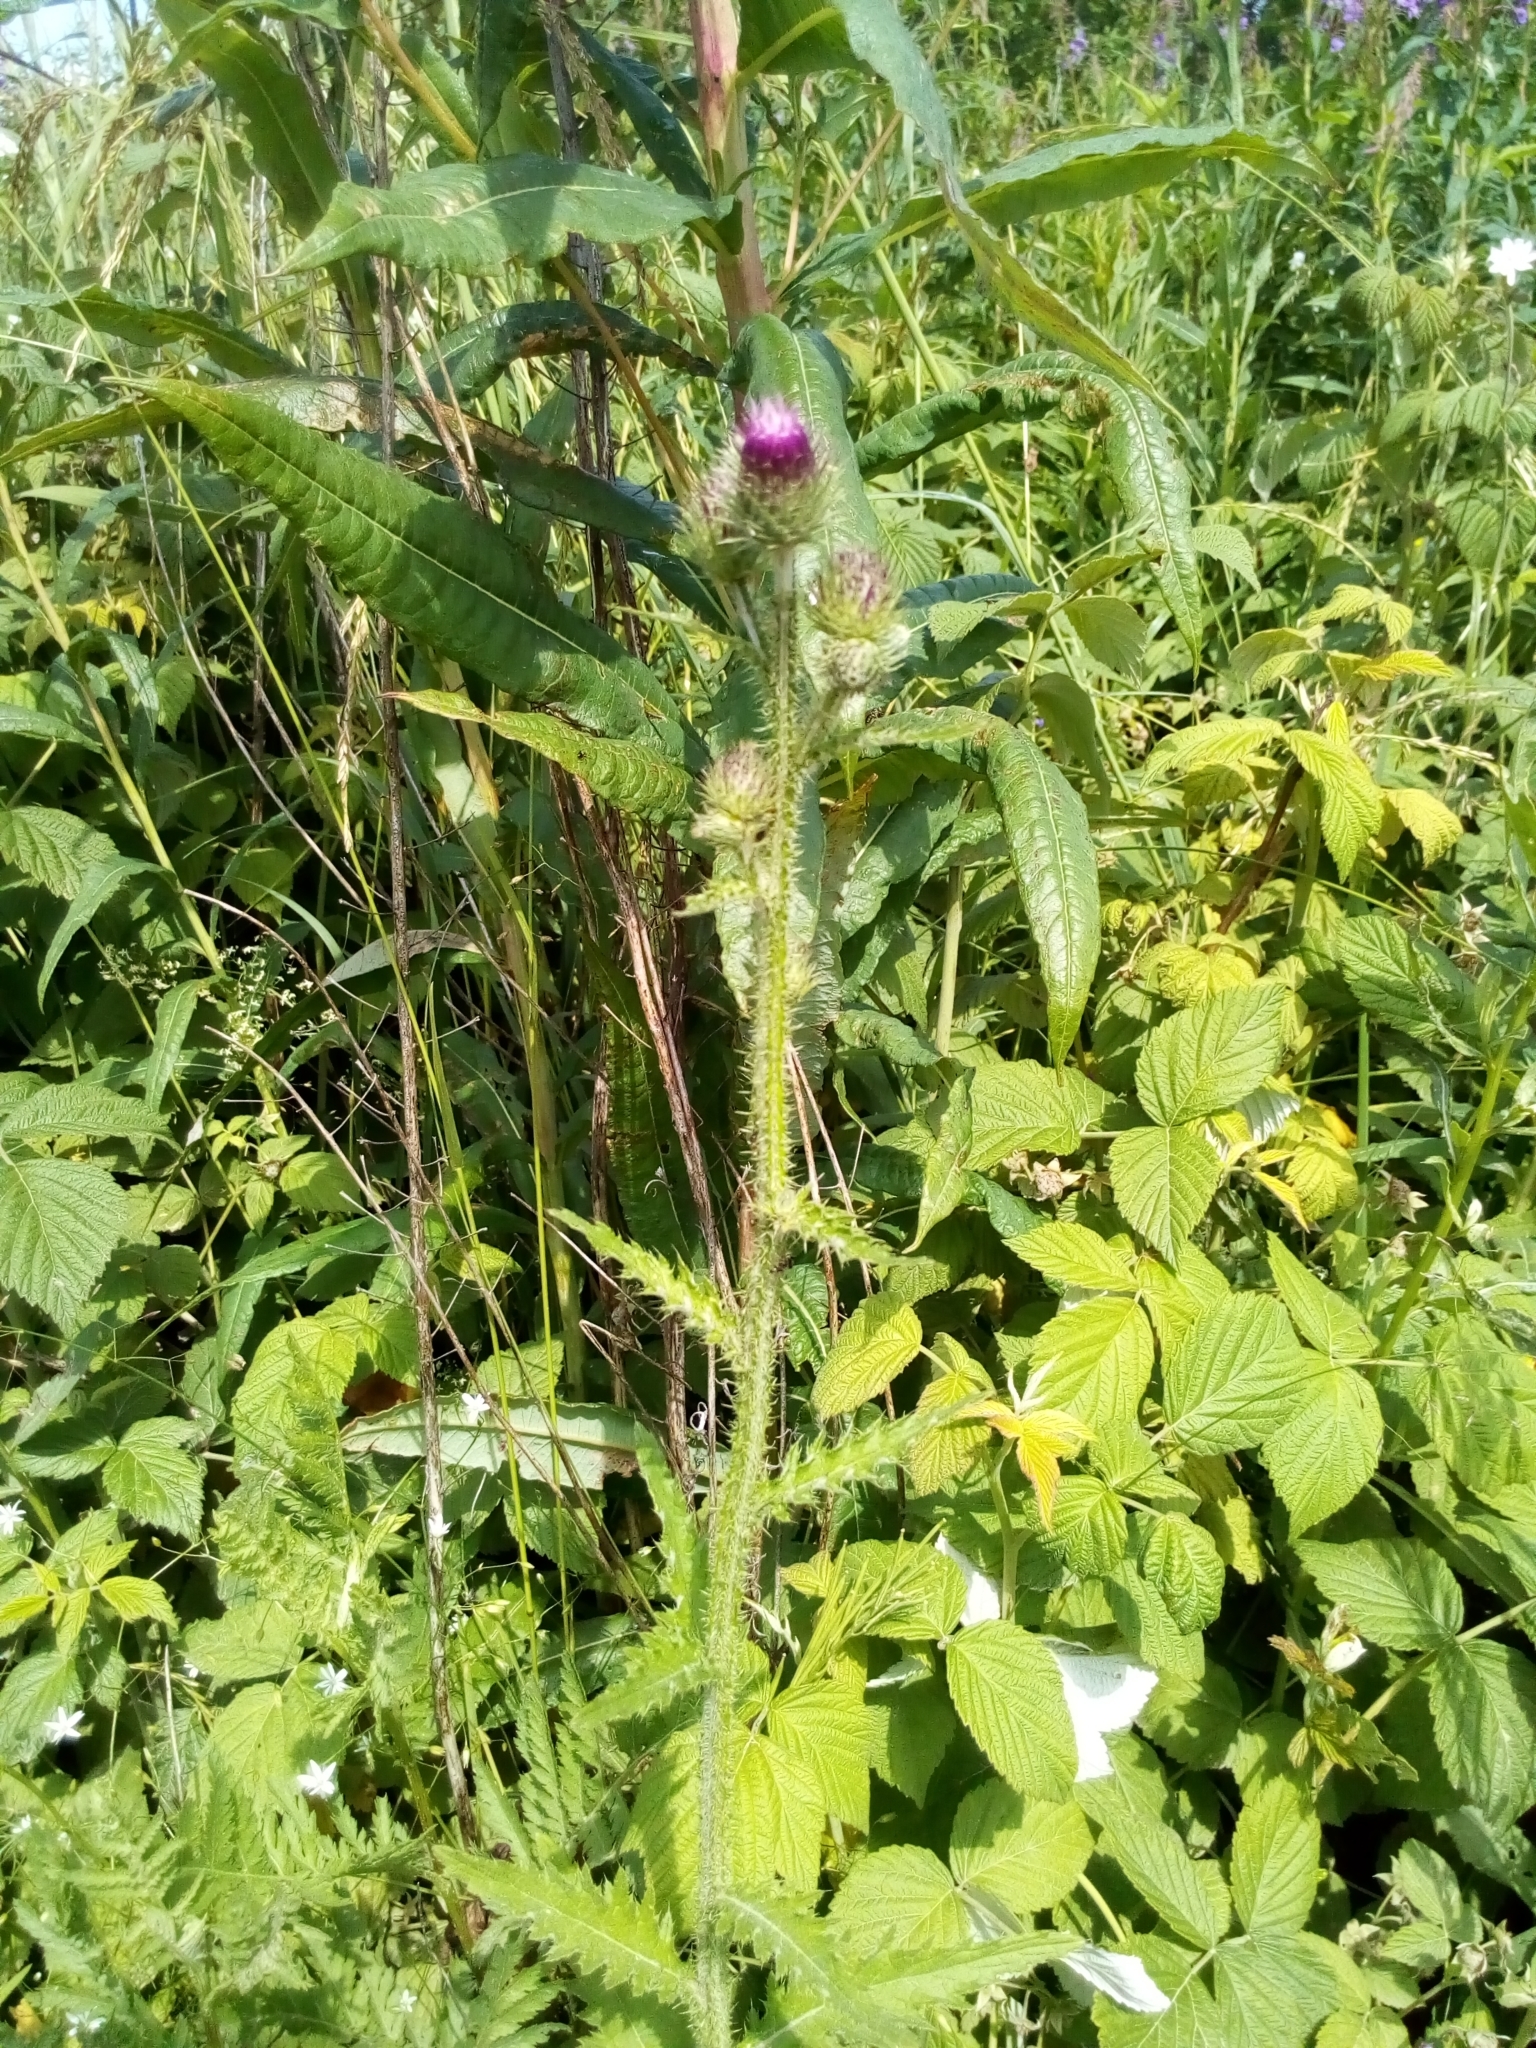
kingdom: Plantae
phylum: Tracheophyta
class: Magnoliopsida
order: Asterales
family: Asteraceae
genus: Carduus
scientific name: Carduus crispus
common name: Welted thistle
